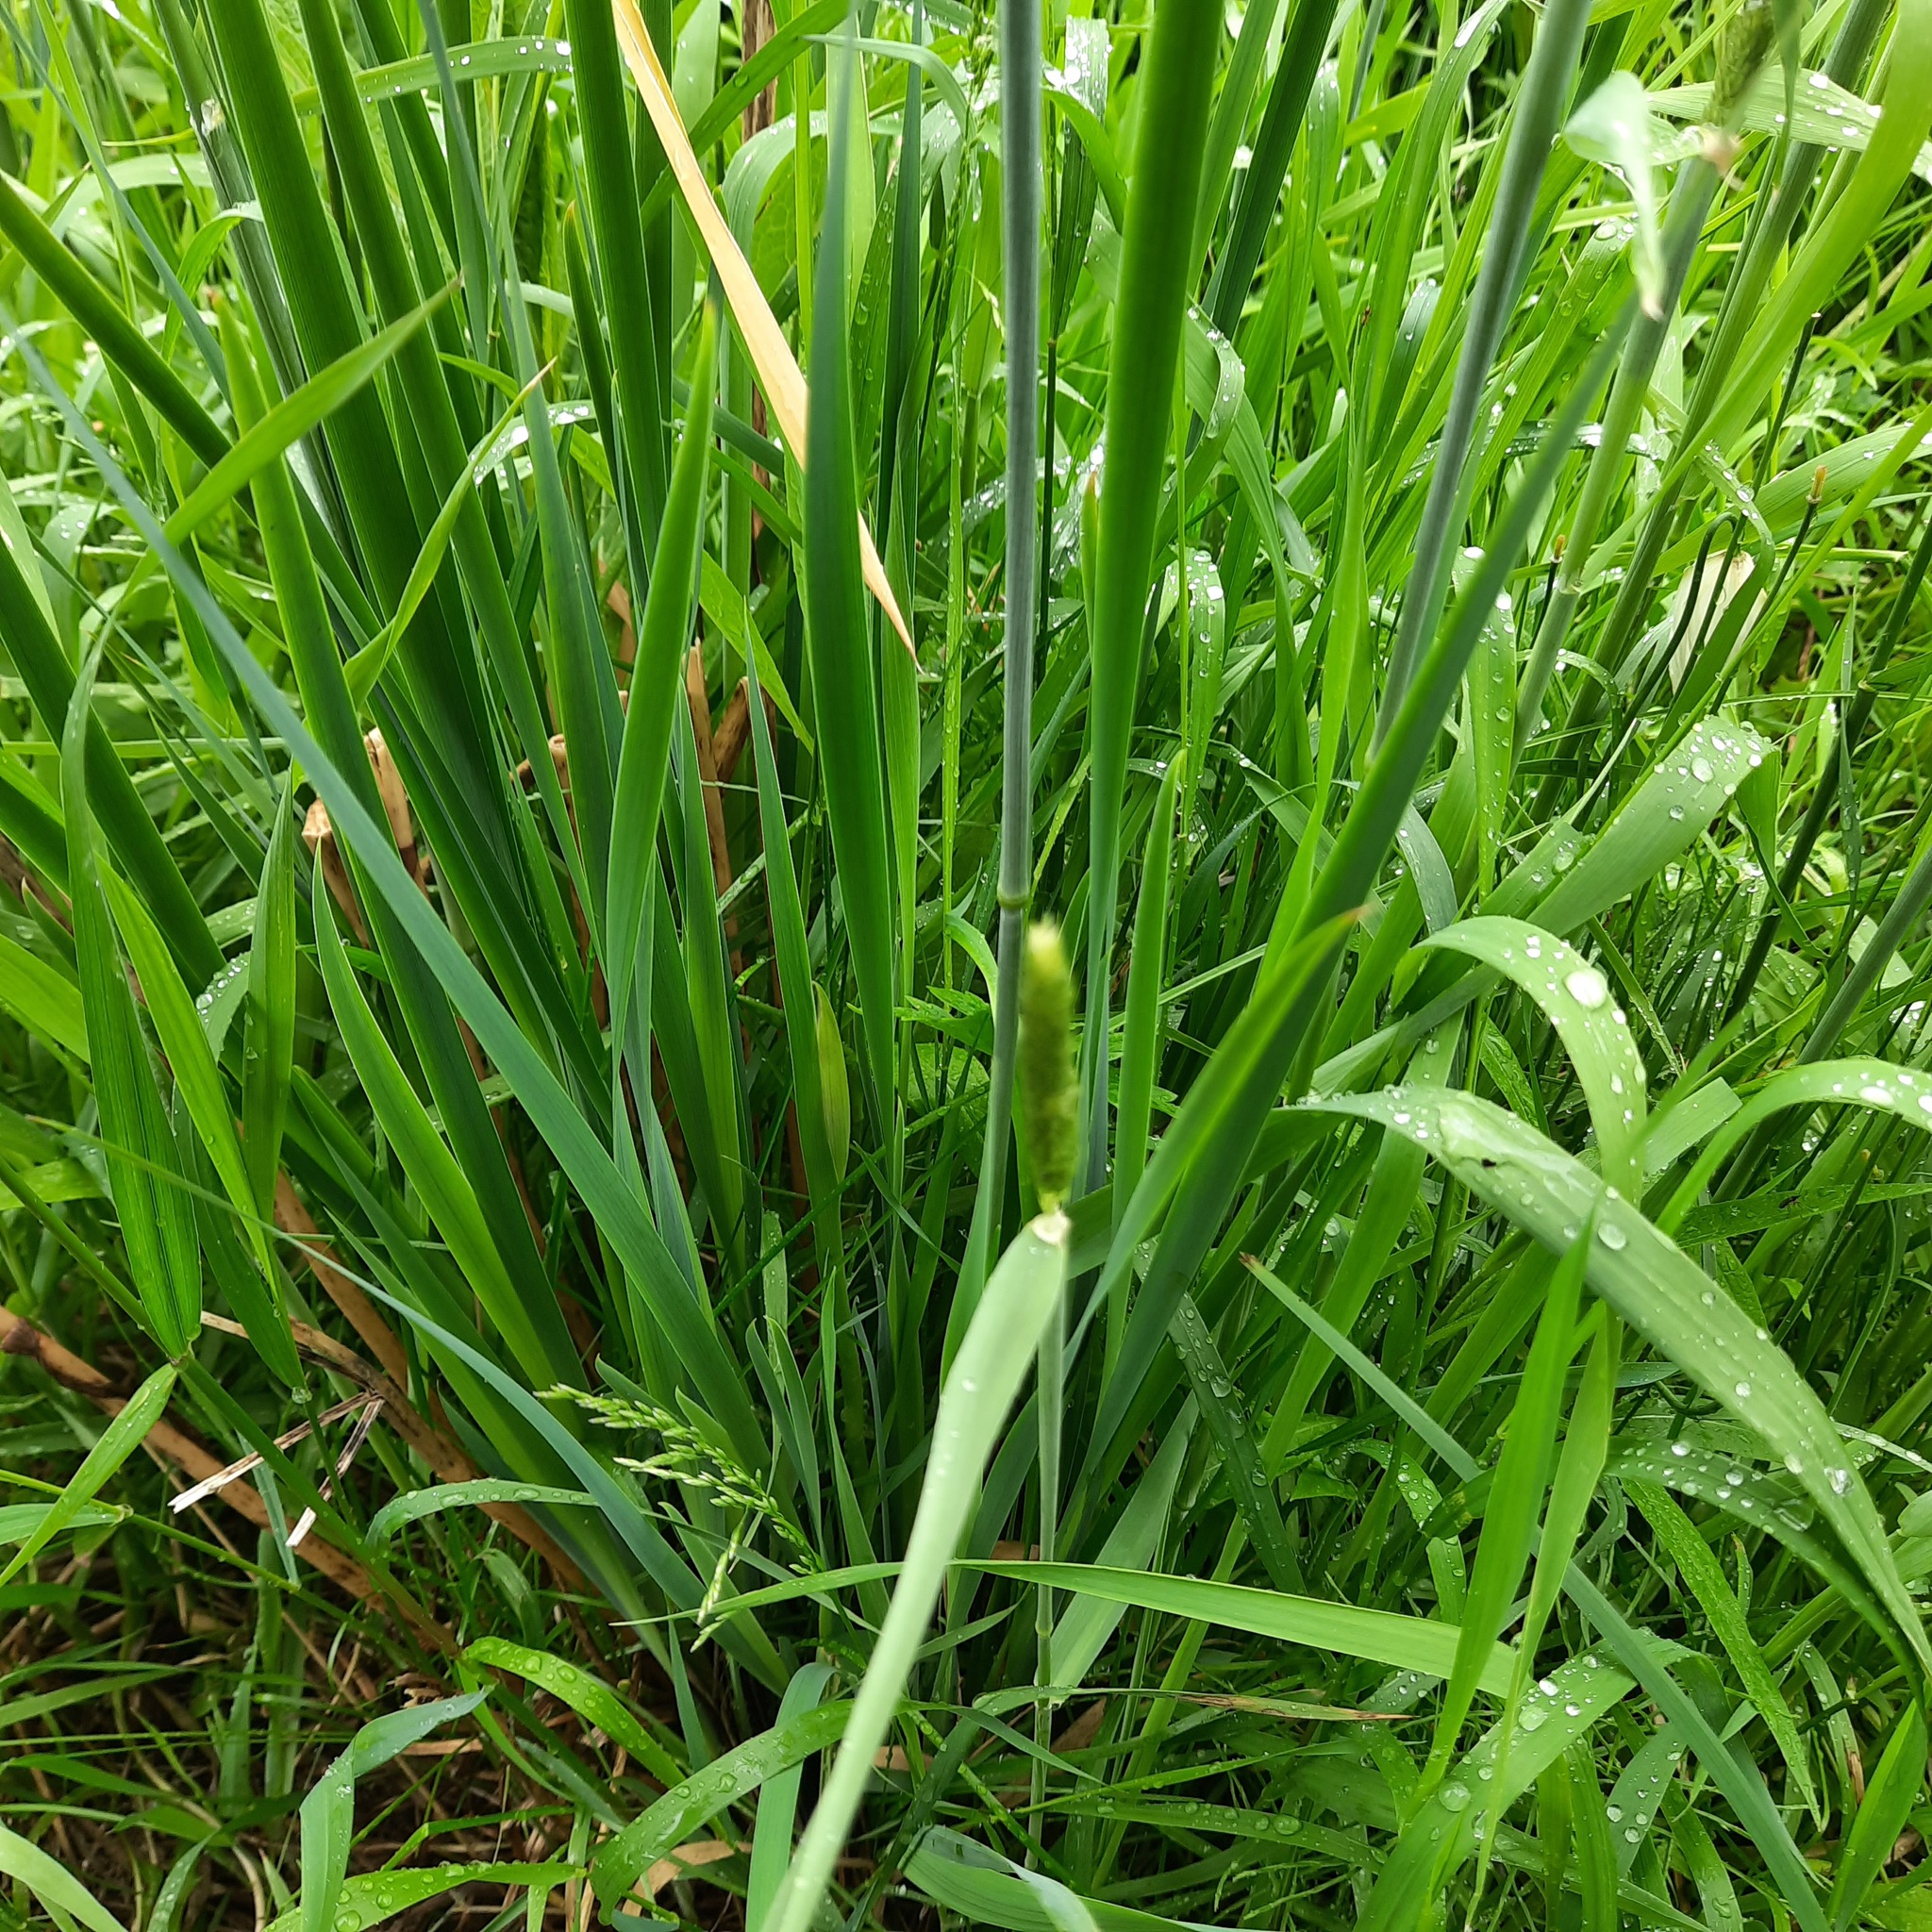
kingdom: Plantae
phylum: Tracheophyta
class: Liliopsida
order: Asparagales
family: Iridaceae
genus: Iris
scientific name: Iris sibirica
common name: Siberian iris
